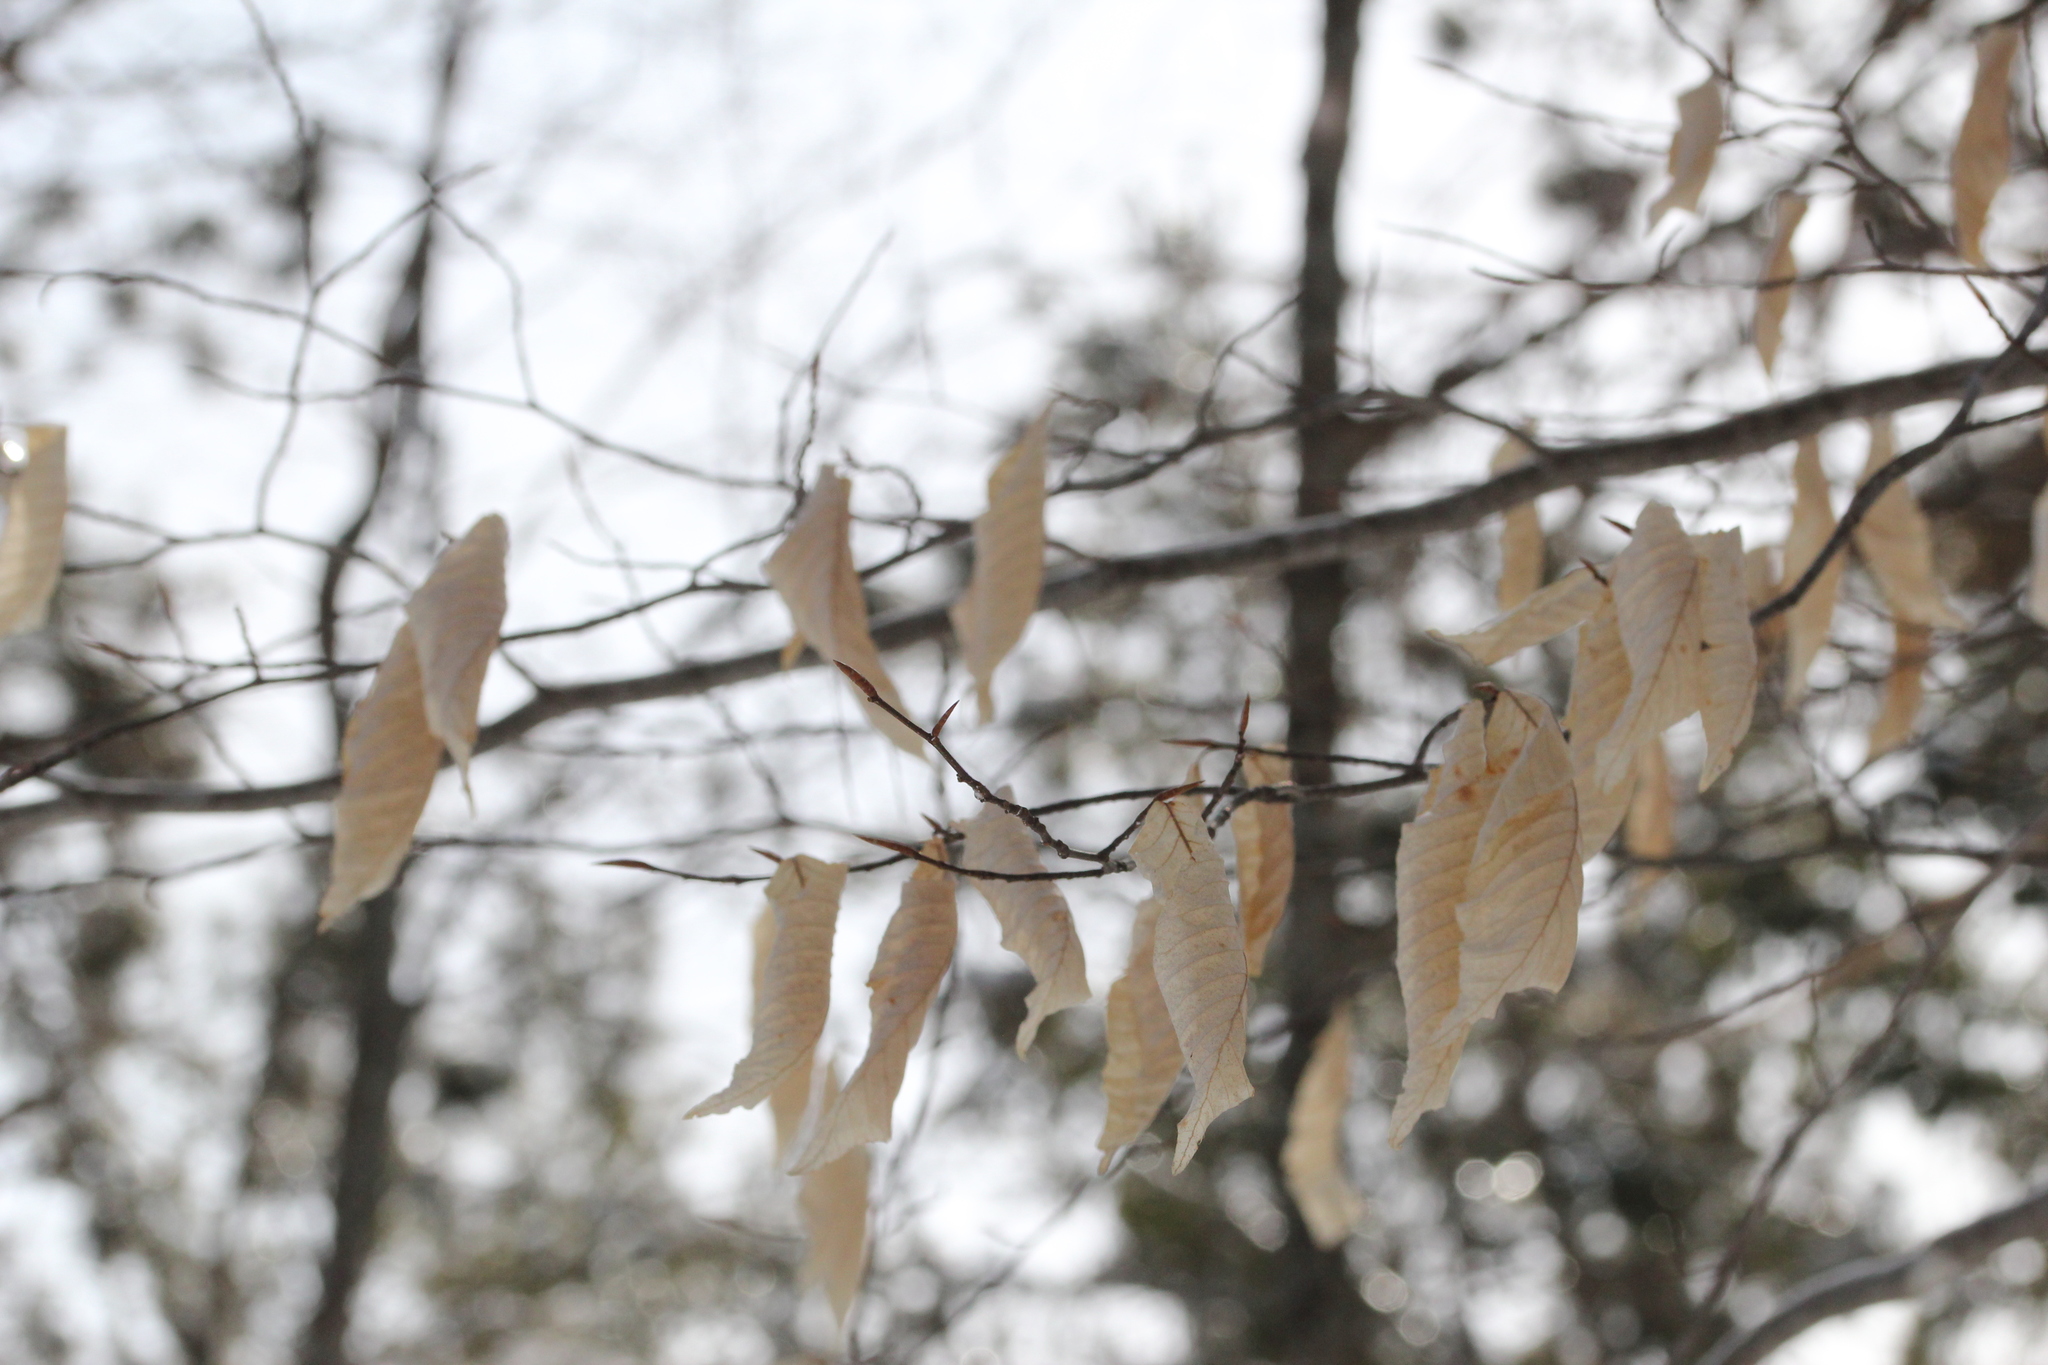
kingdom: Plantae
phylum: Tracheophyta
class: Magnoliopsida
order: Fagales
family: Fagaceae
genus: Fagus
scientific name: Fagus grandifolia
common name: American beech
